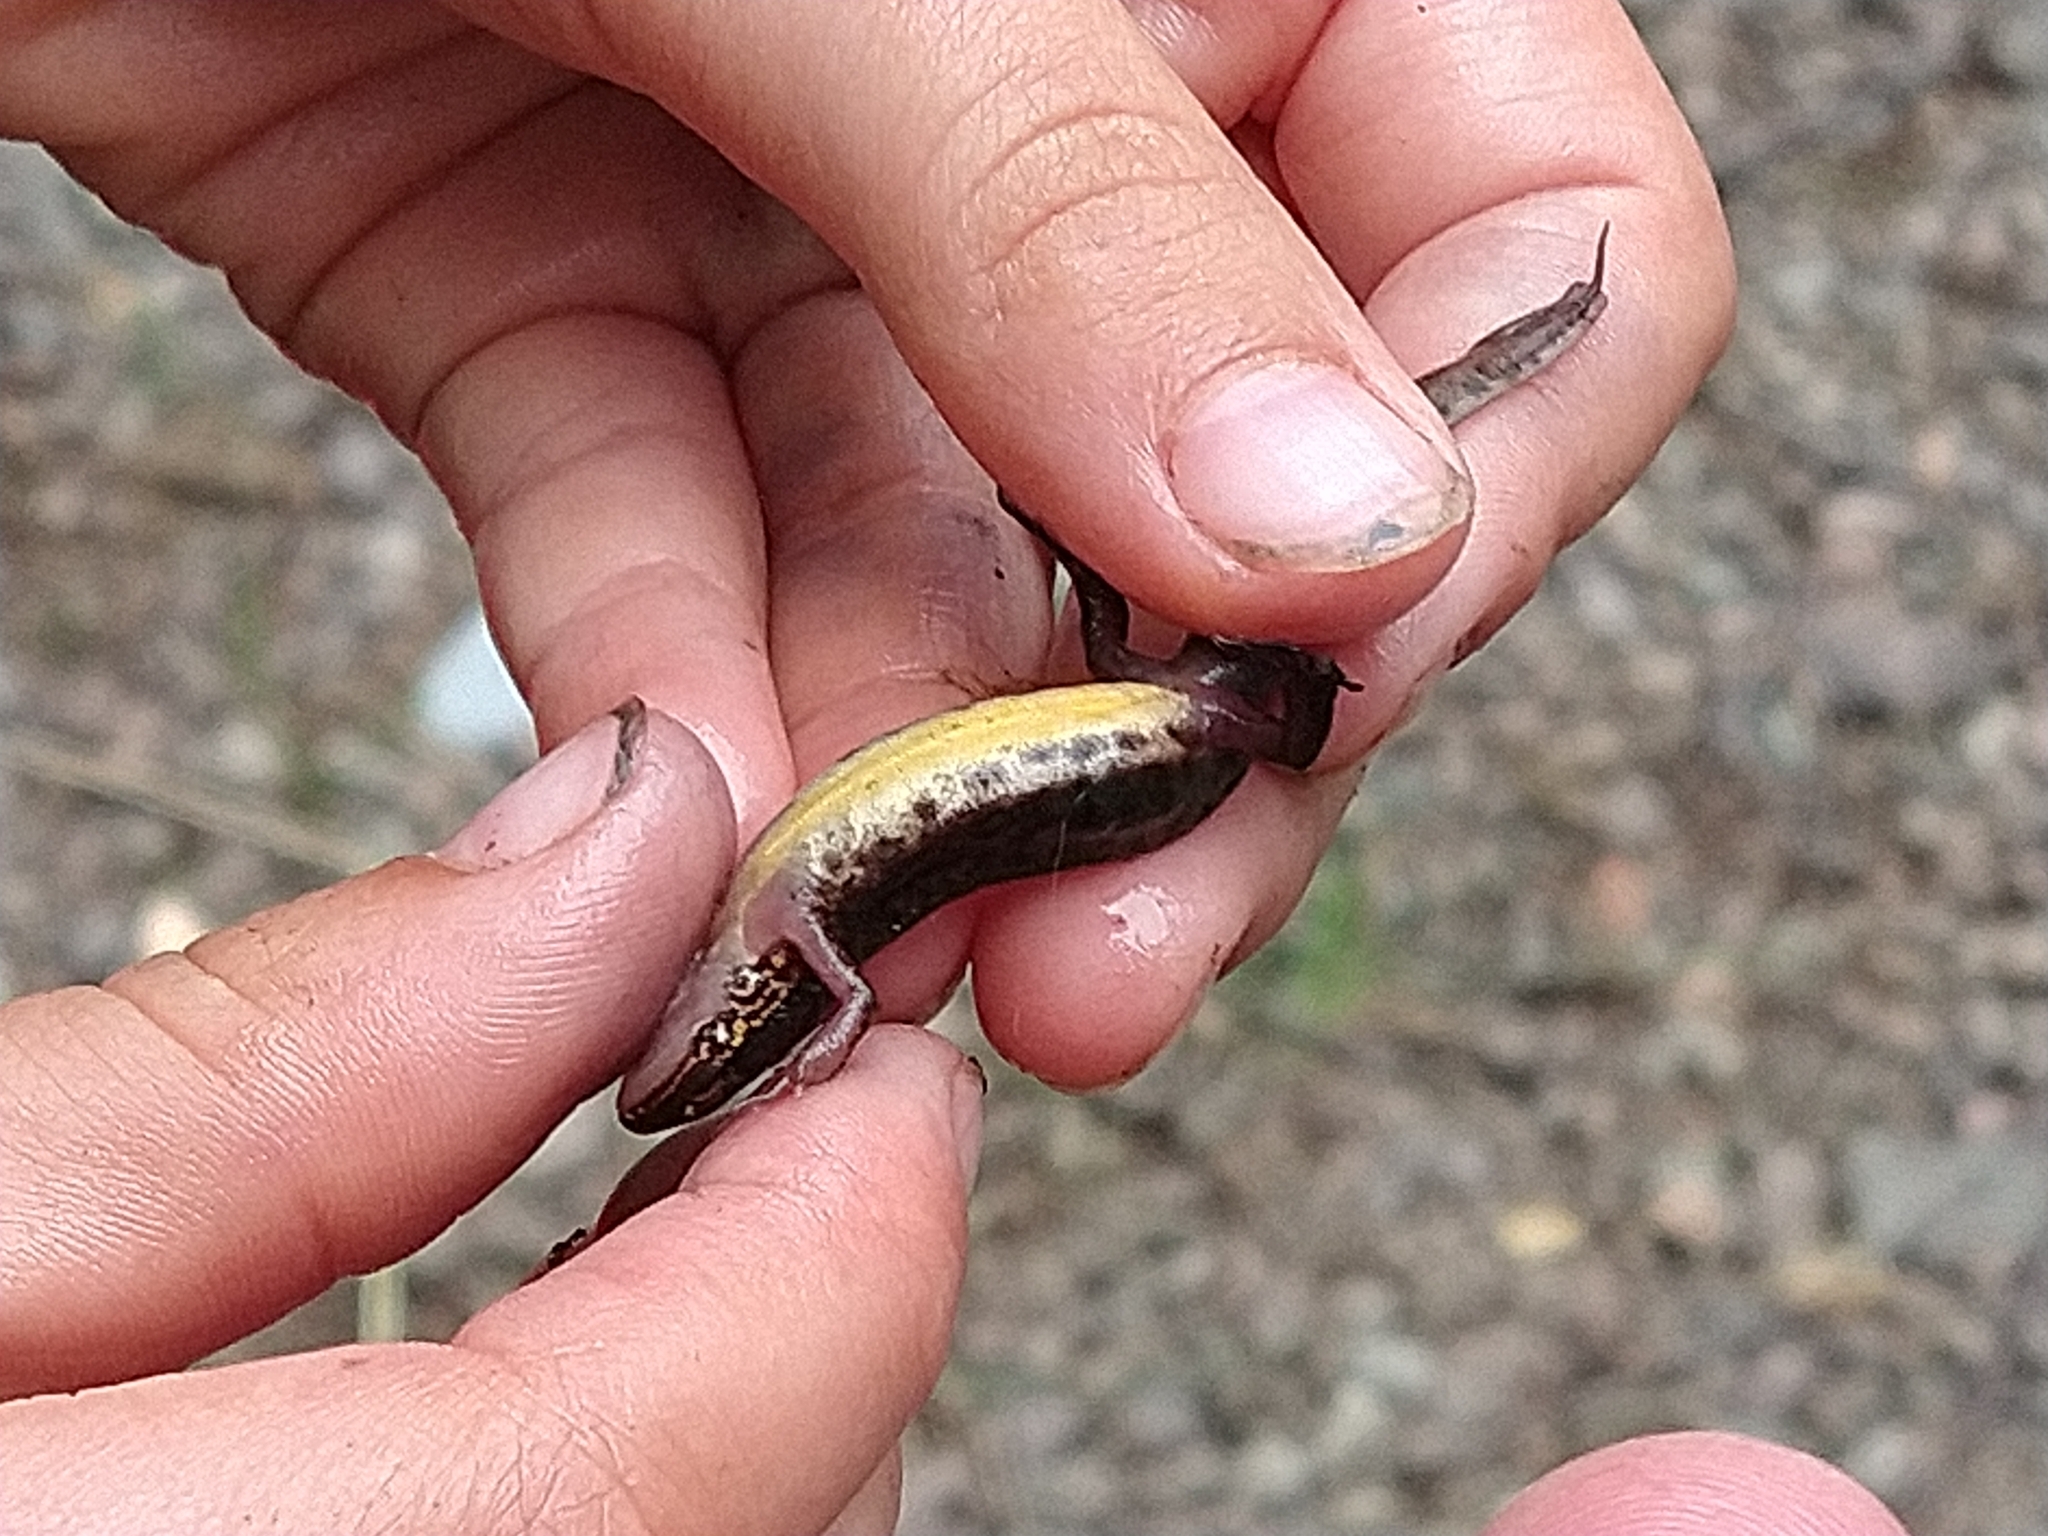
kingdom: Animalia
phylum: Chordata
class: Amphibia
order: Caudata
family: Salamandridae
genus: Lissotriton
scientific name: Lissotriton helveticus
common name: Palmate newt
